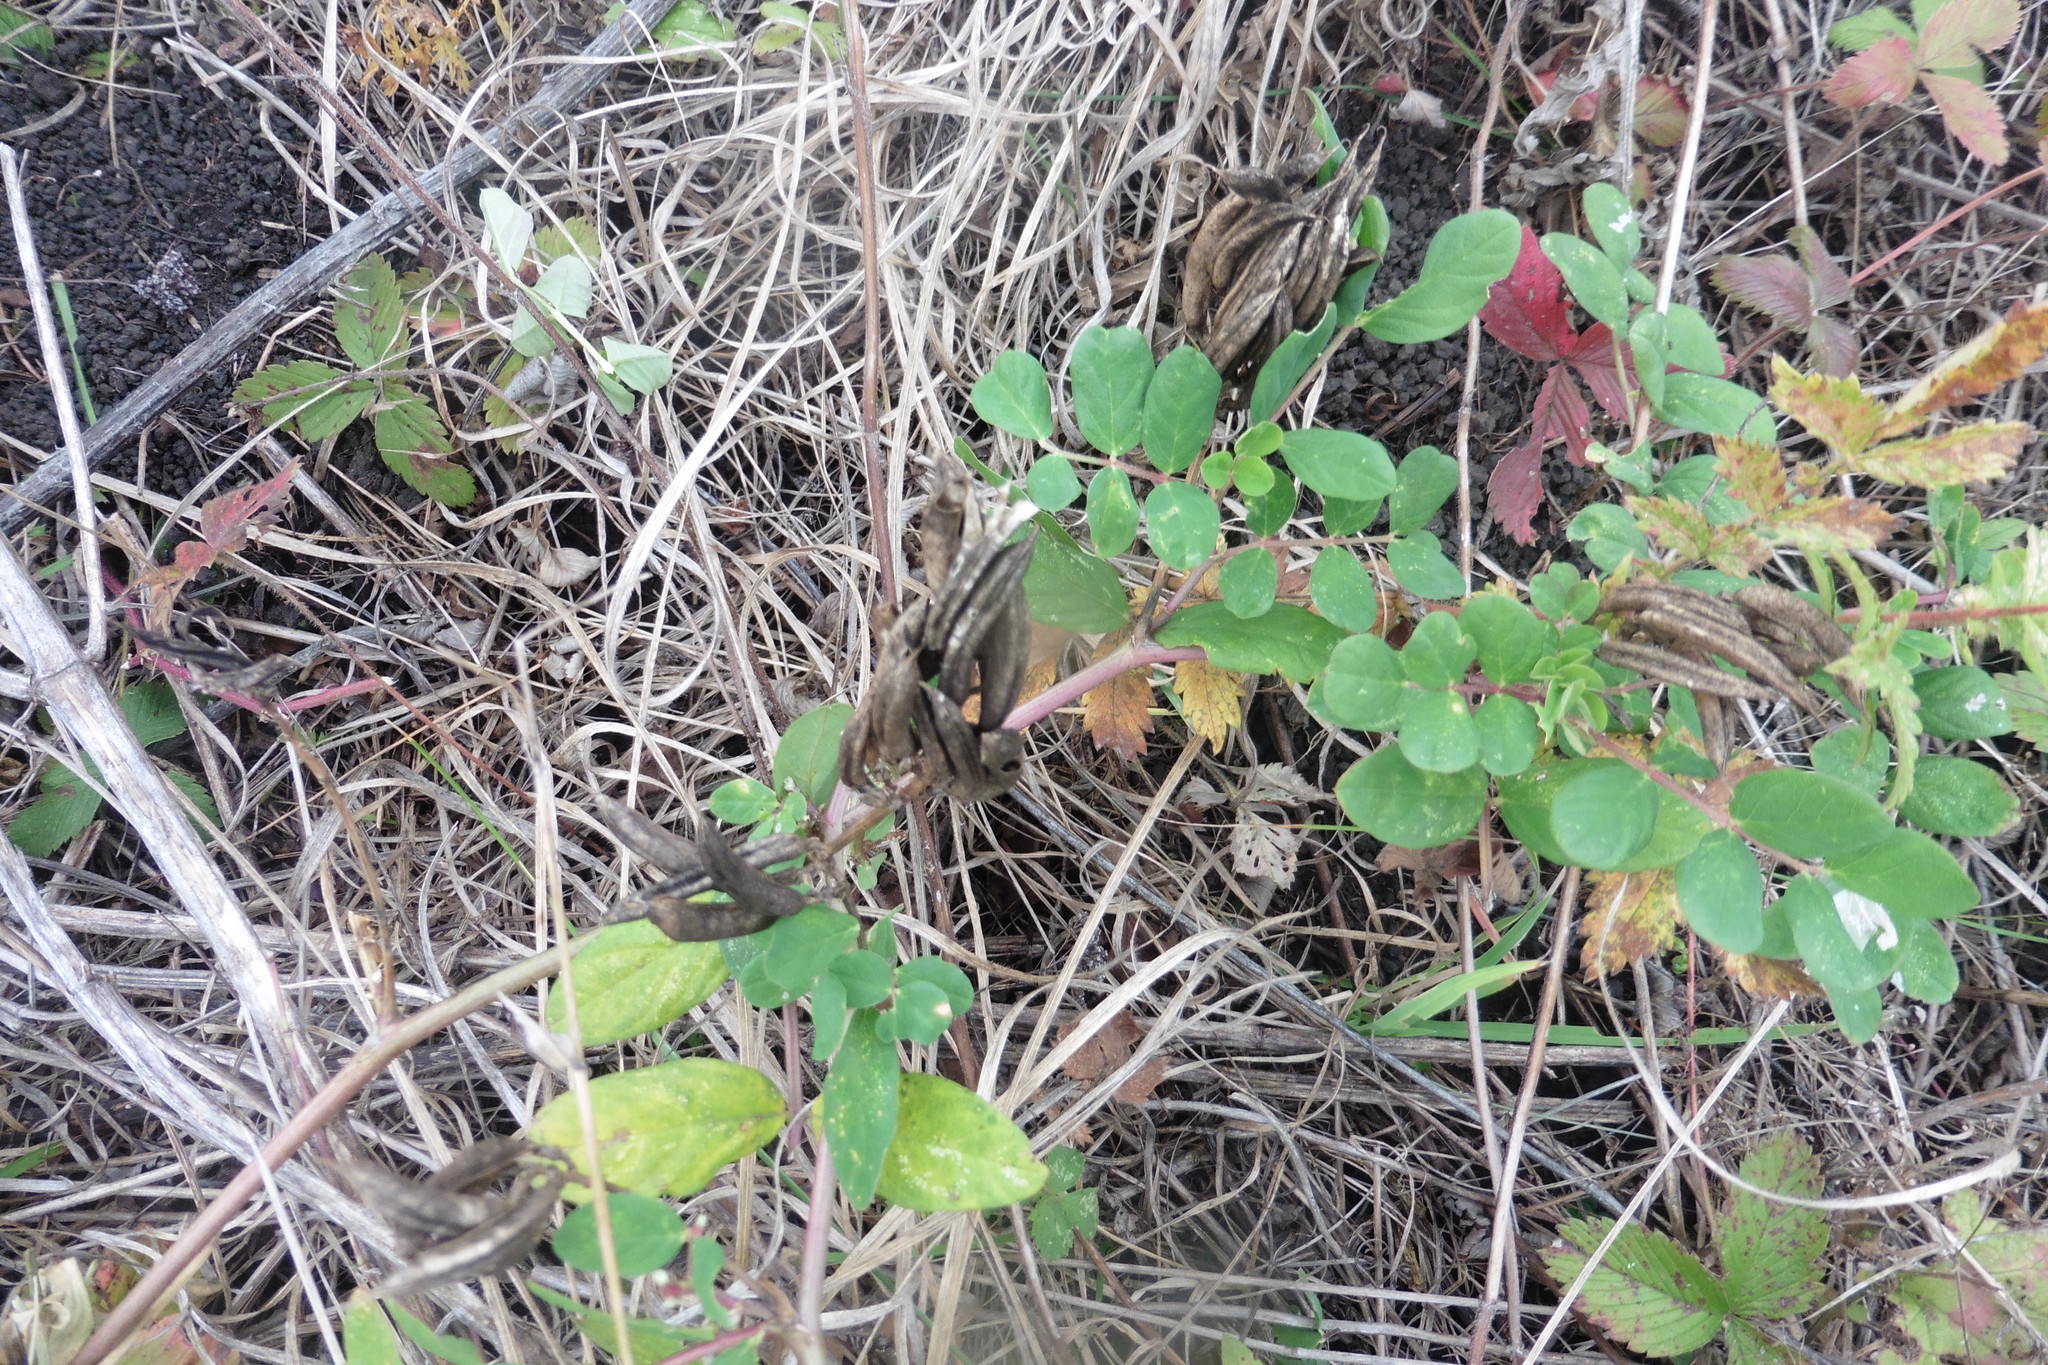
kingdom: Plantae
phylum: Tracheophyta
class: Magnoliopsida
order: Fabales
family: Fabaceae
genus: Astragalus
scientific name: Astragalus glycyphyllos
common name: Wild liquorice
